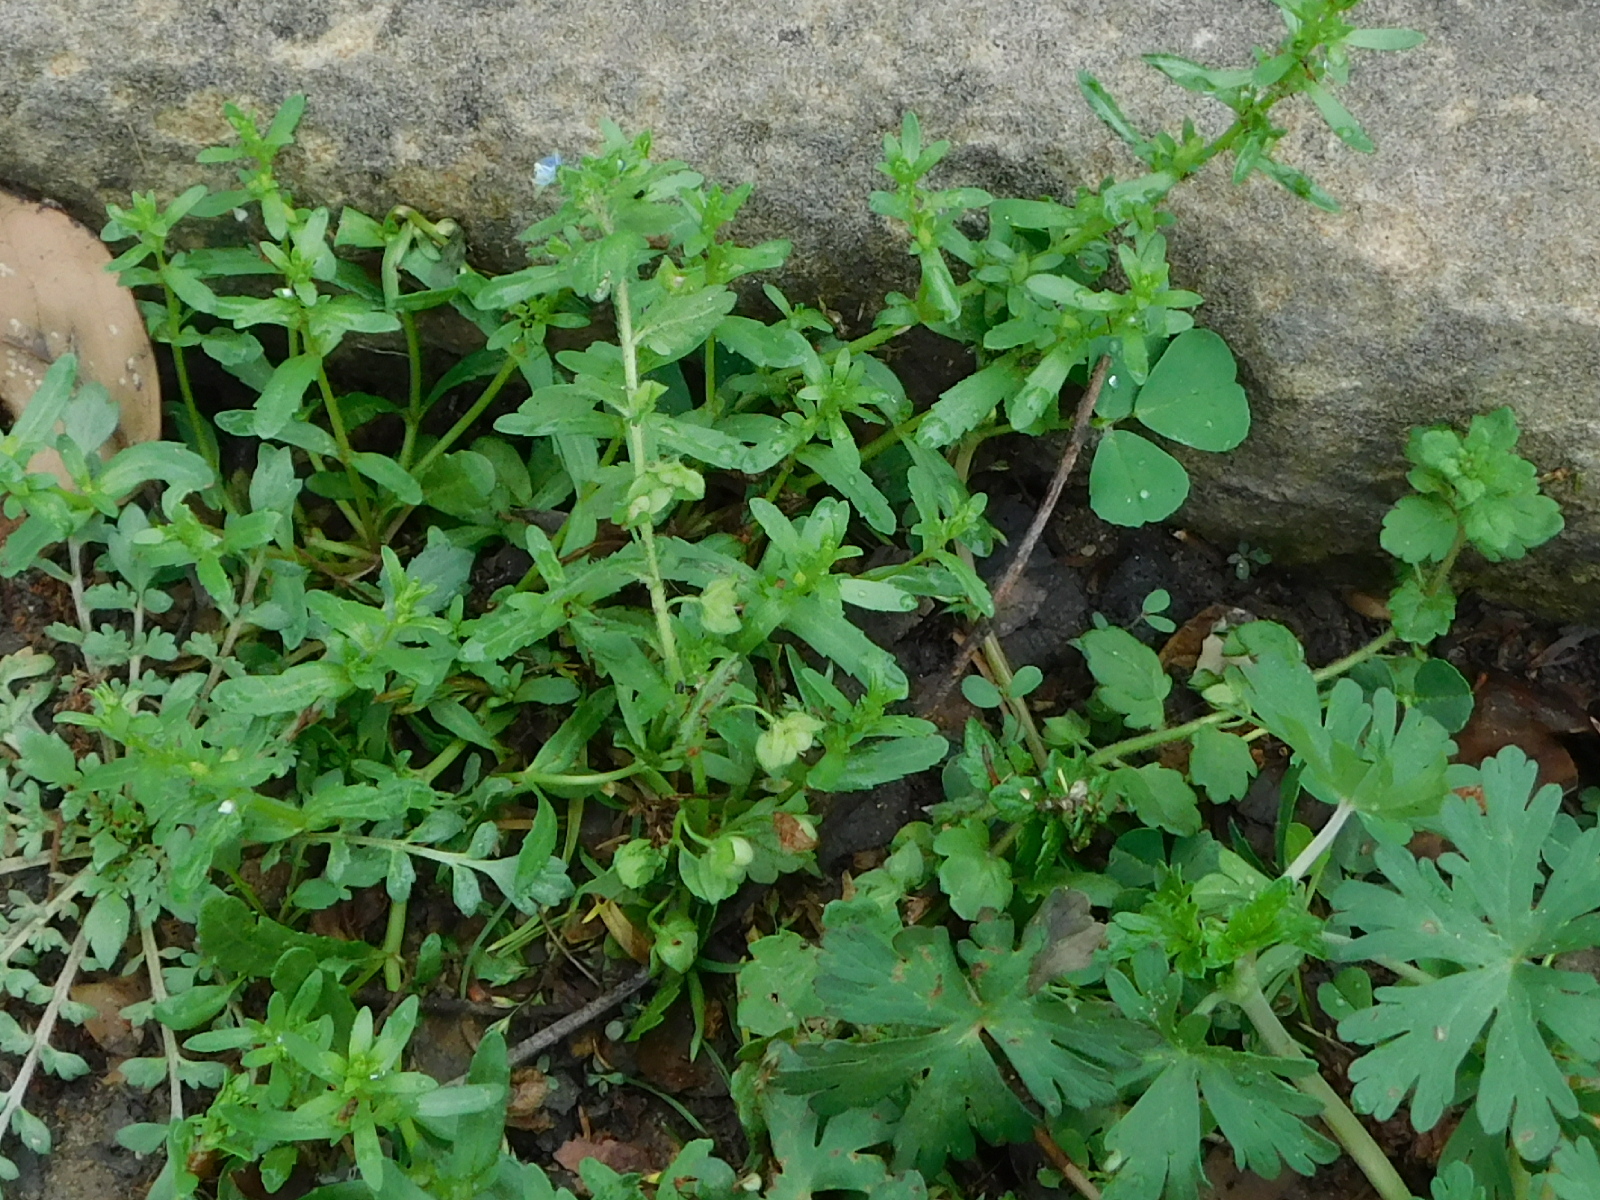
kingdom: Plantae
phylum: Tracheophyta
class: Magnoliopsida
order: Lamiales
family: Plantaginaceae
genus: Veronica
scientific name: Veronica polita
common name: Grey field-speedwell
